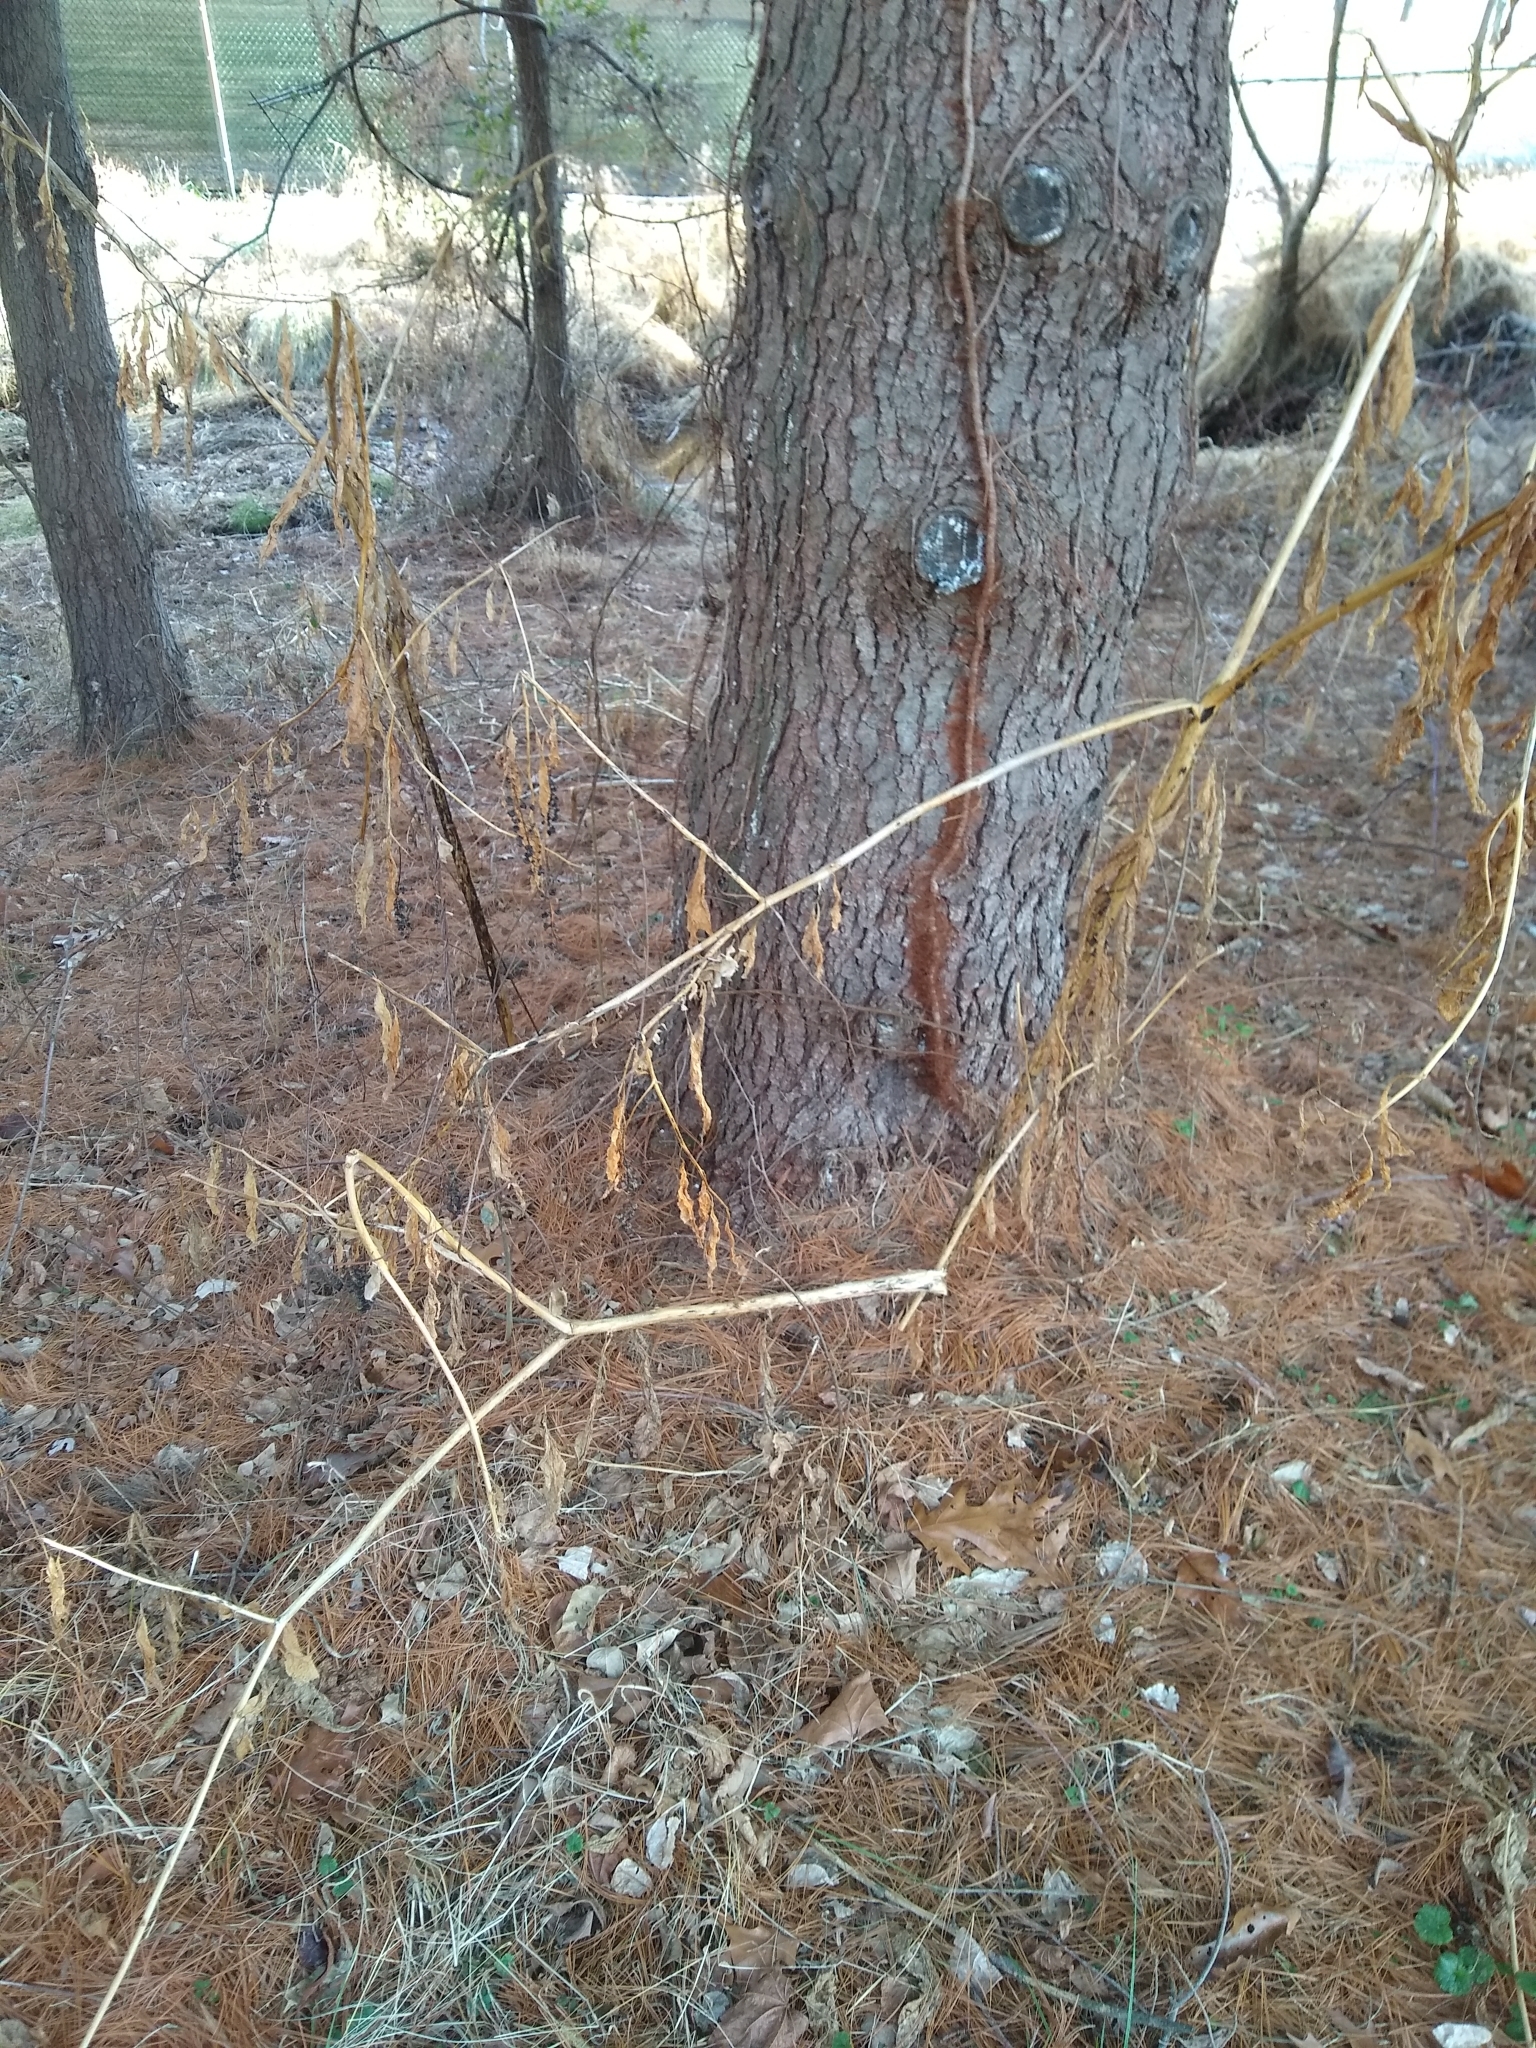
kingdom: Plantae
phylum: Tracheophyta
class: Magnoliopsida
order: Caryophyllales
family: Phytolaccaceae
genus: Phytolacca
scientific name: Phytolacca americana
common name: American pokeweed
